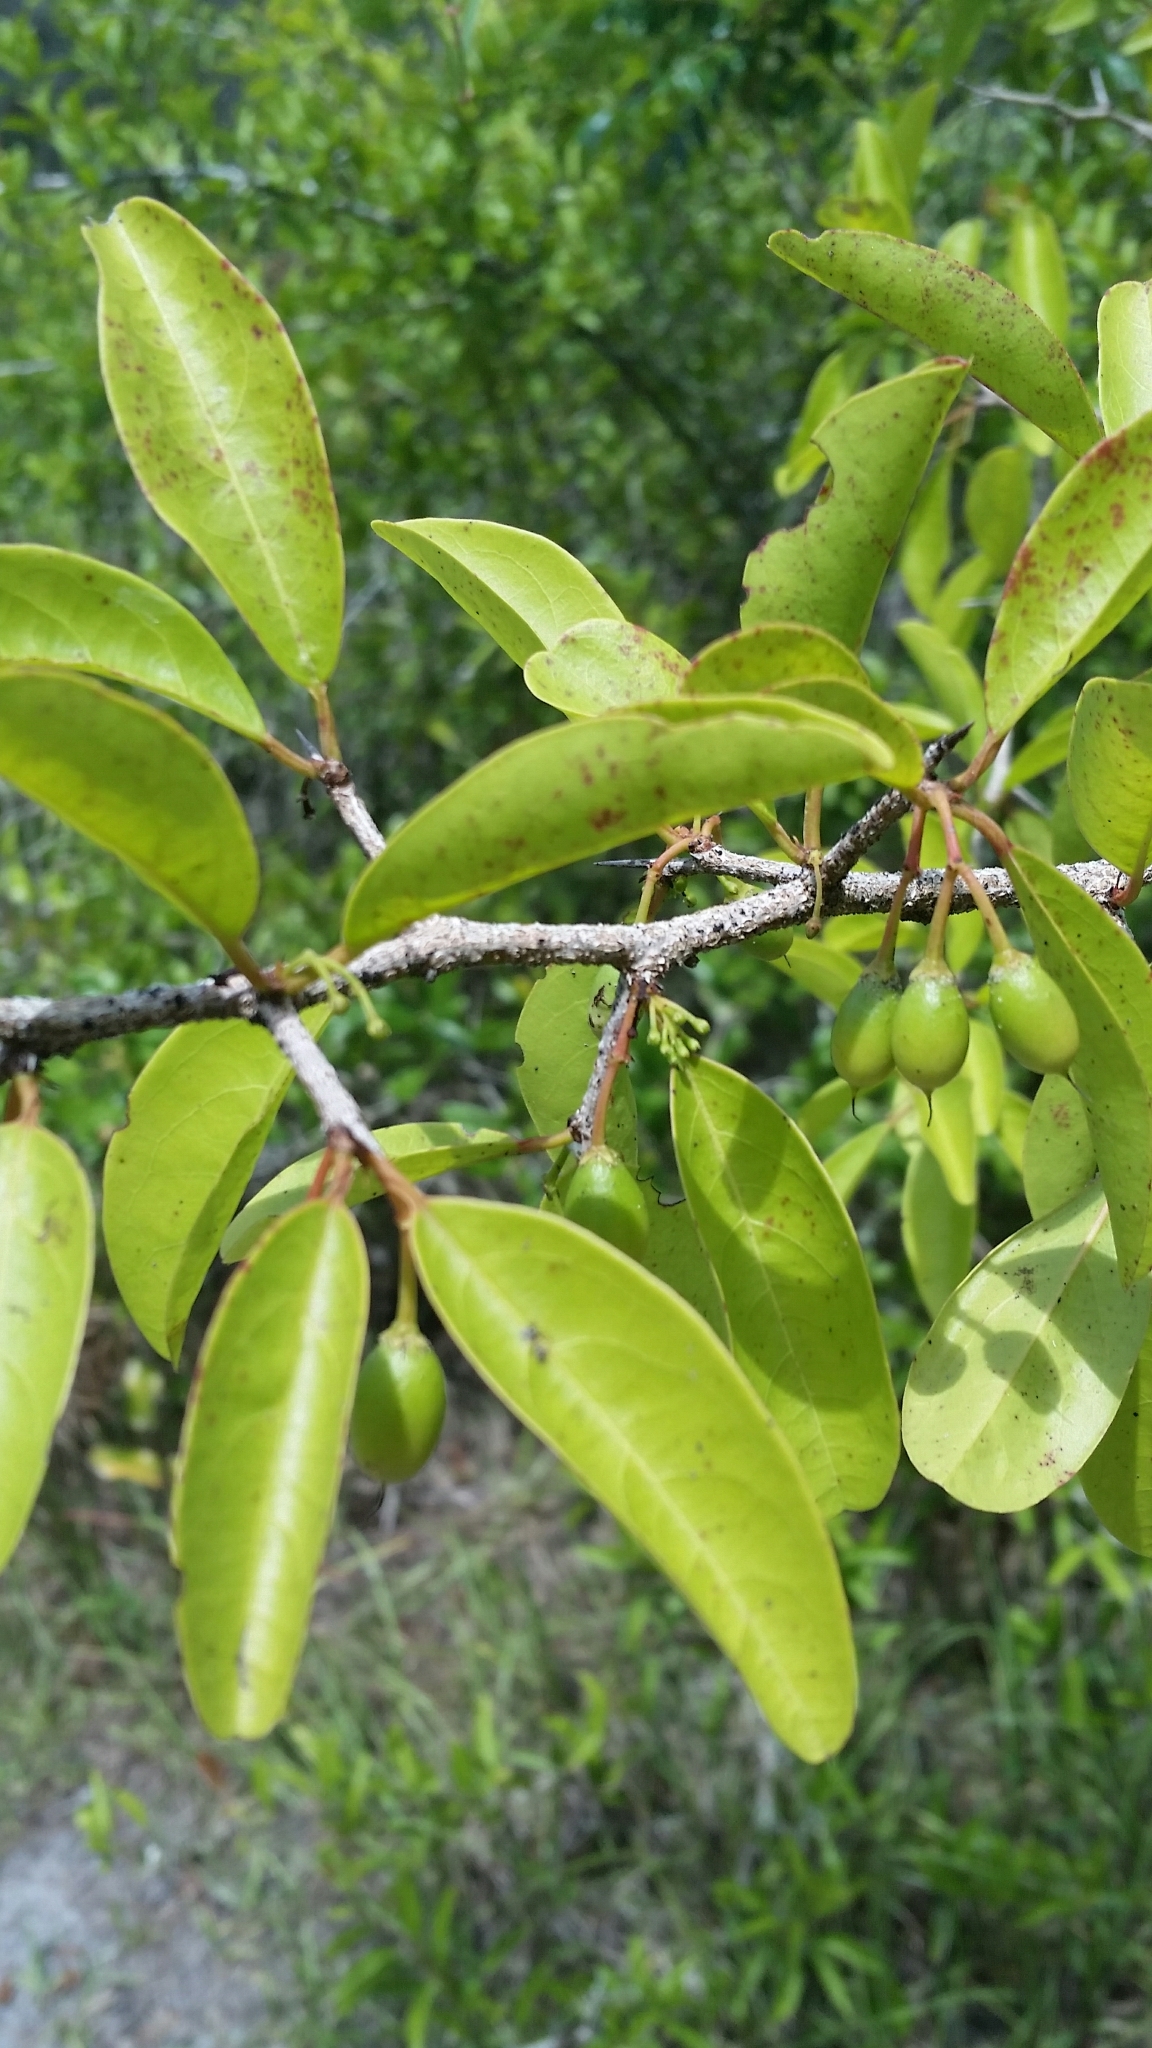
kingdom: Plantae
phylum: Tracheophyta
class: Magnoliopsida
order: Santalales
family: Ximeniaceae
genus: Ximenia
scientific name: Ximenia americana
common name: Tallowwood
